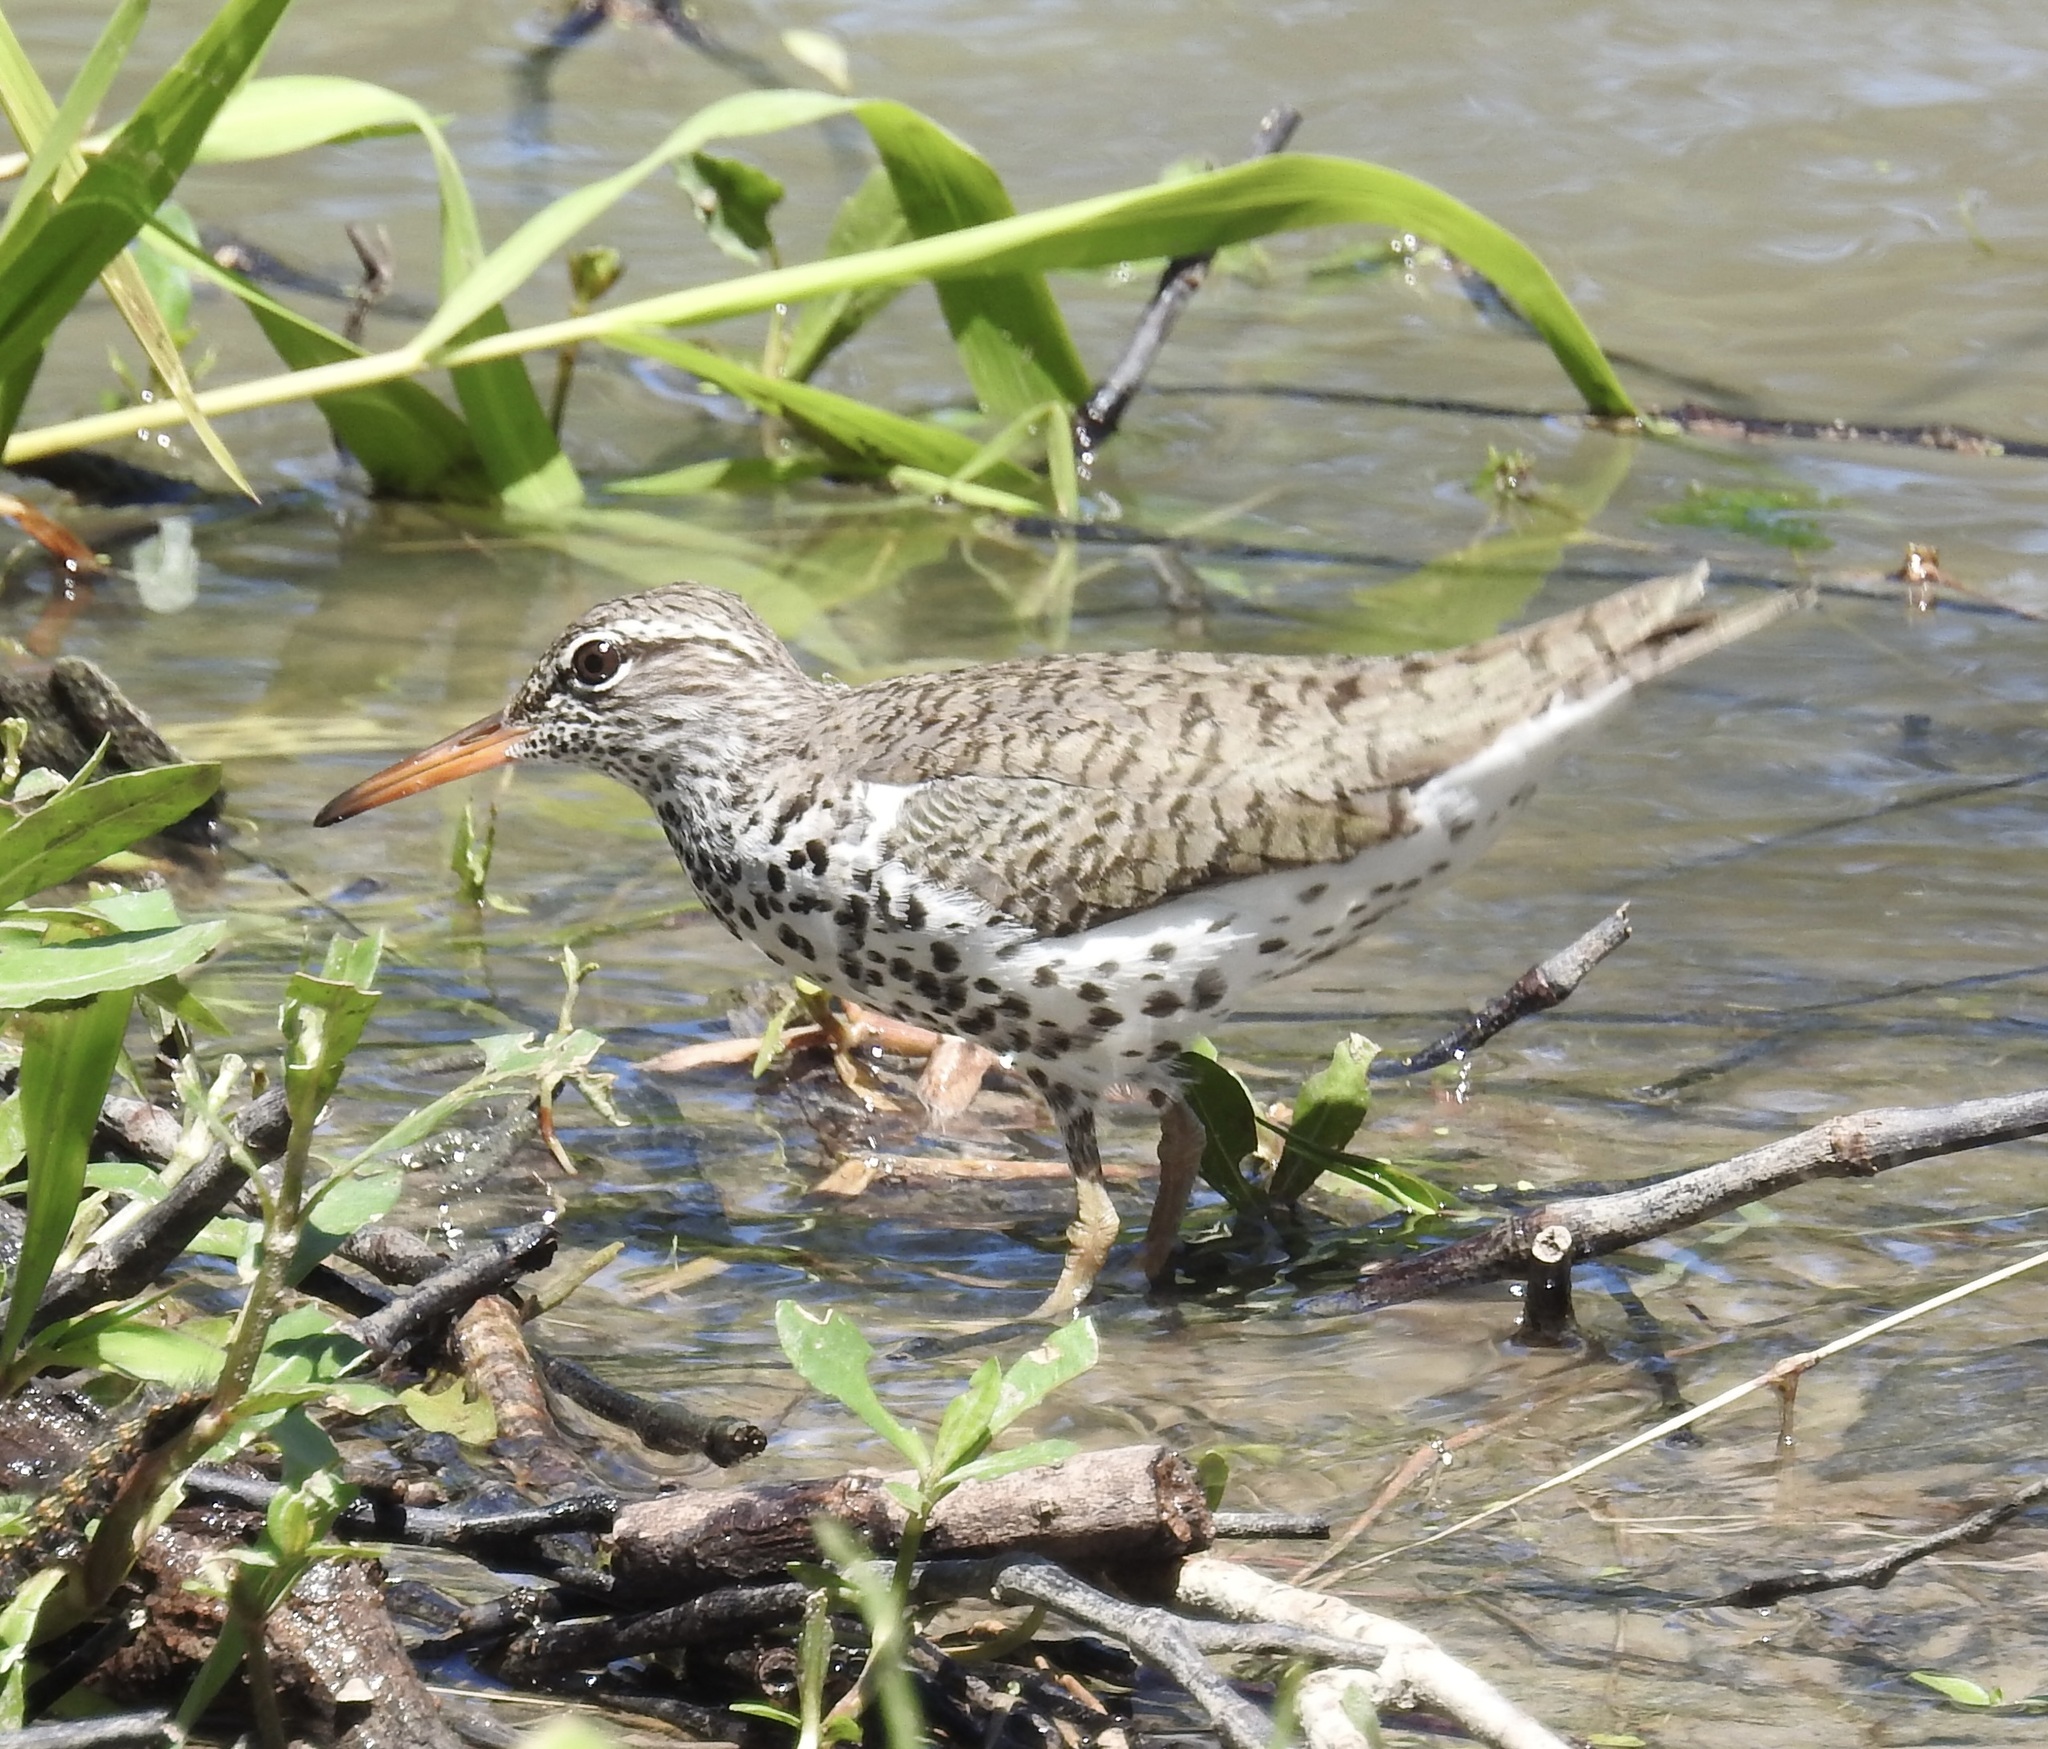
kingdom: Animalia
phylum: Chordata
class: Aves
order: Charadriiformes
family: Scolopacidae
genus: Actitis
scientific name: Actitis macularius
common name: Spotted sandpiper
